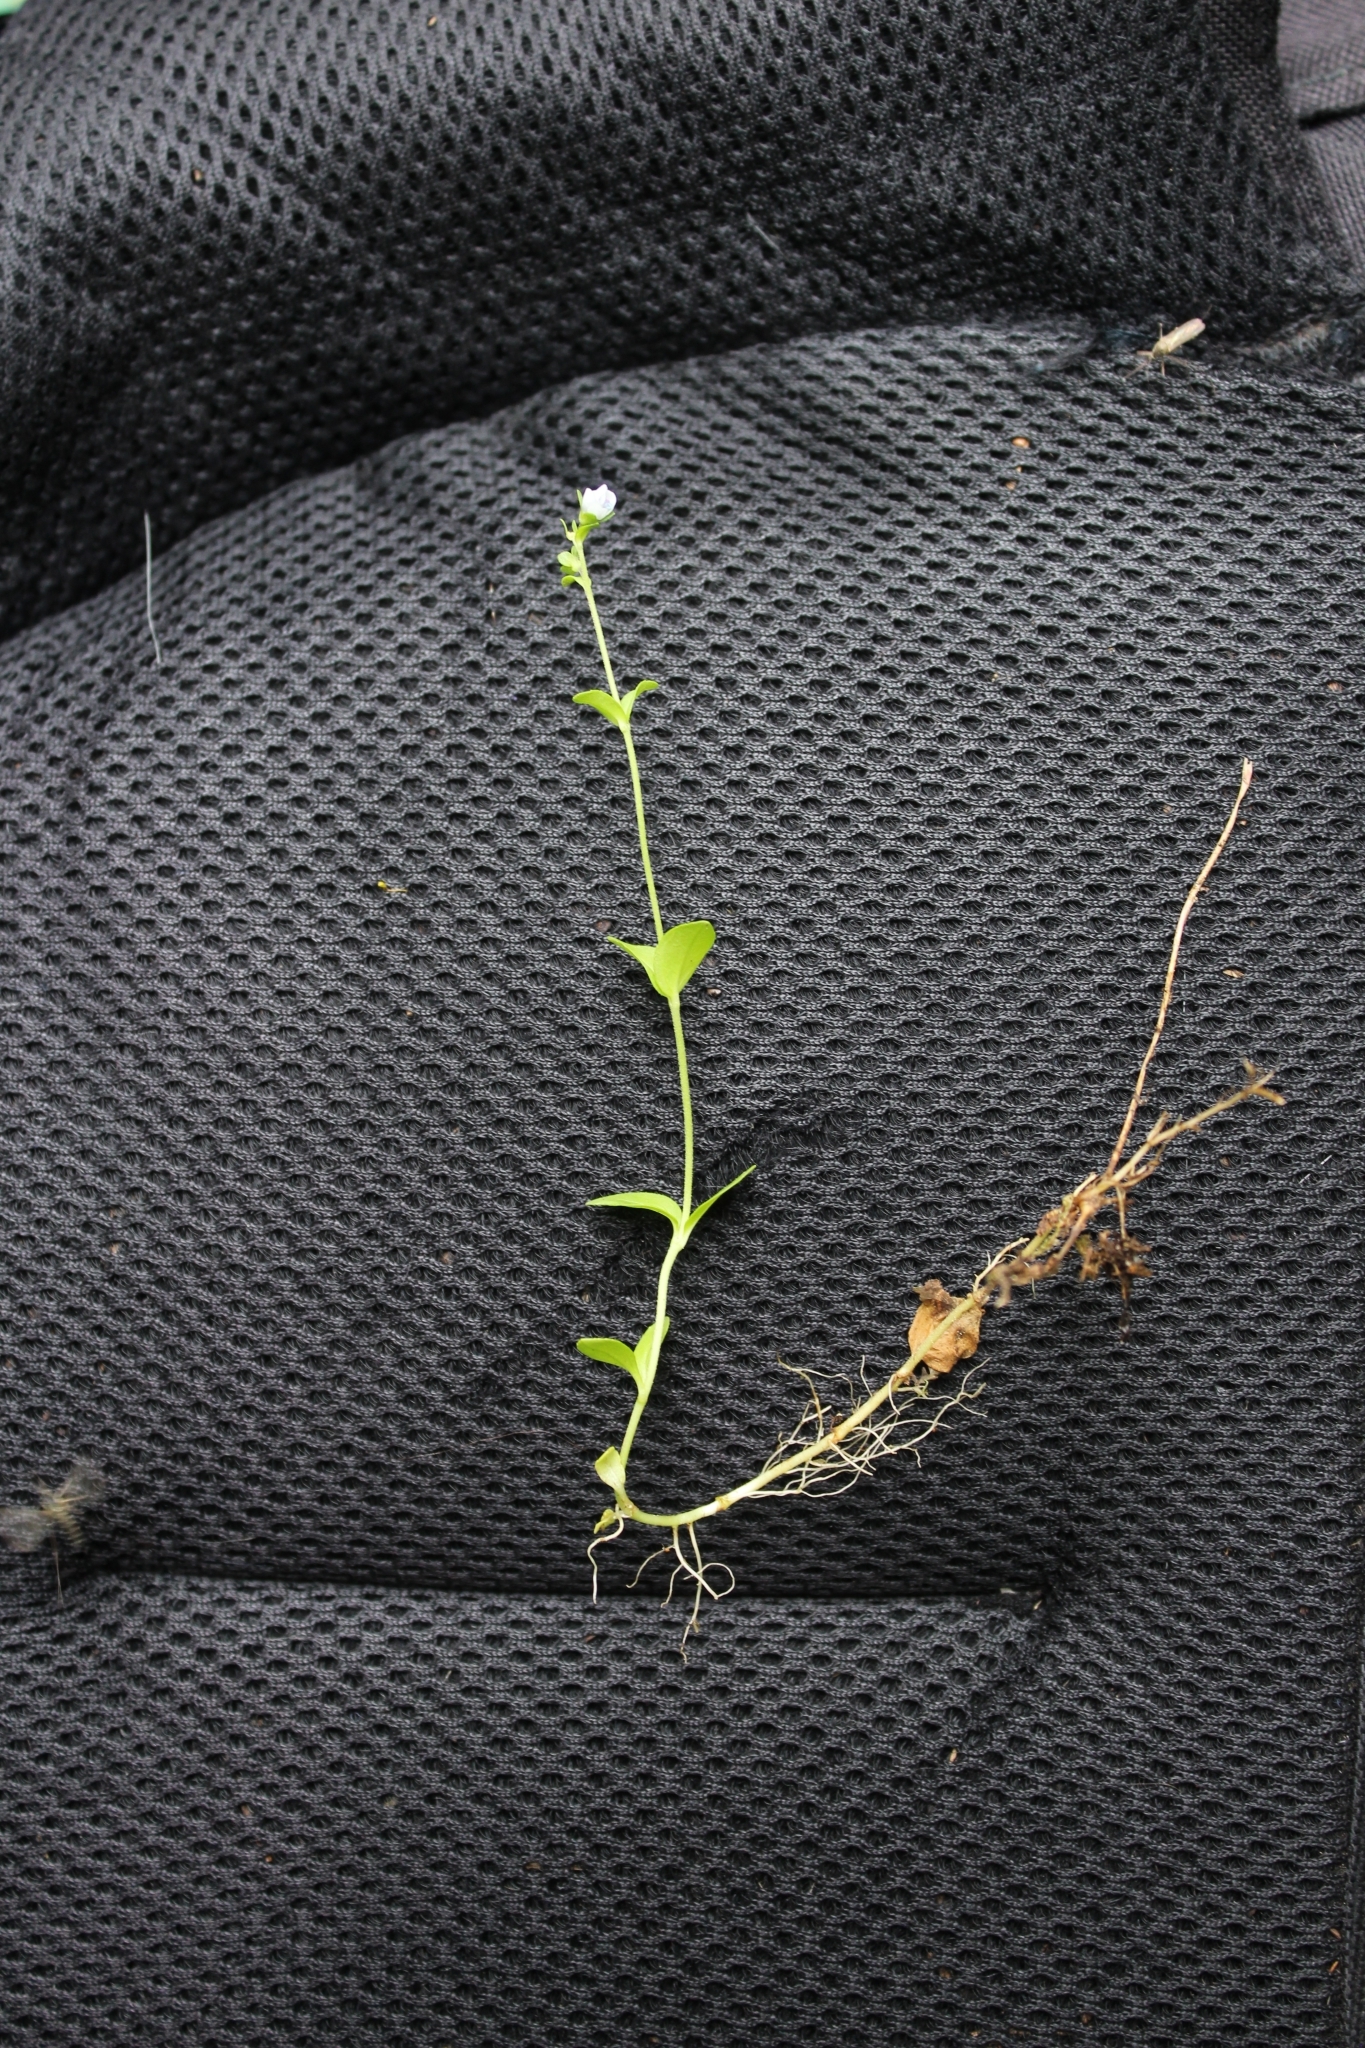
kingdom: Plantae
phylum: Tracheophyta
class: Magnoliopsida
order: Lamiales
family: Plantaginaceae
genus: Veronica
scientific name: Veronica serpyllifolia
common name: Thyme-leaved speedwell
